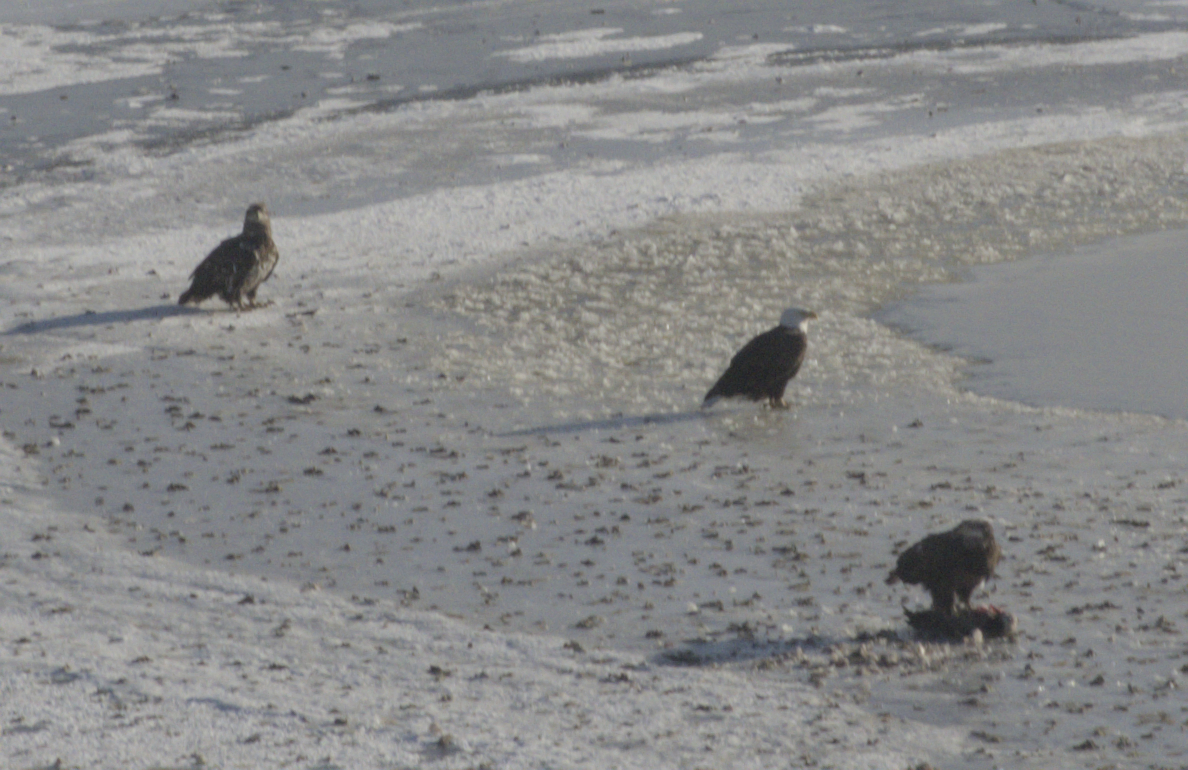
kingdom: Animalia
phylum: Chordata
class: Aves
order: Accipitriformes
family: Accipitridae
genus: Haliaeetus
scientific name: Haliaeetus leucocephalus
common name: Bald eagle
